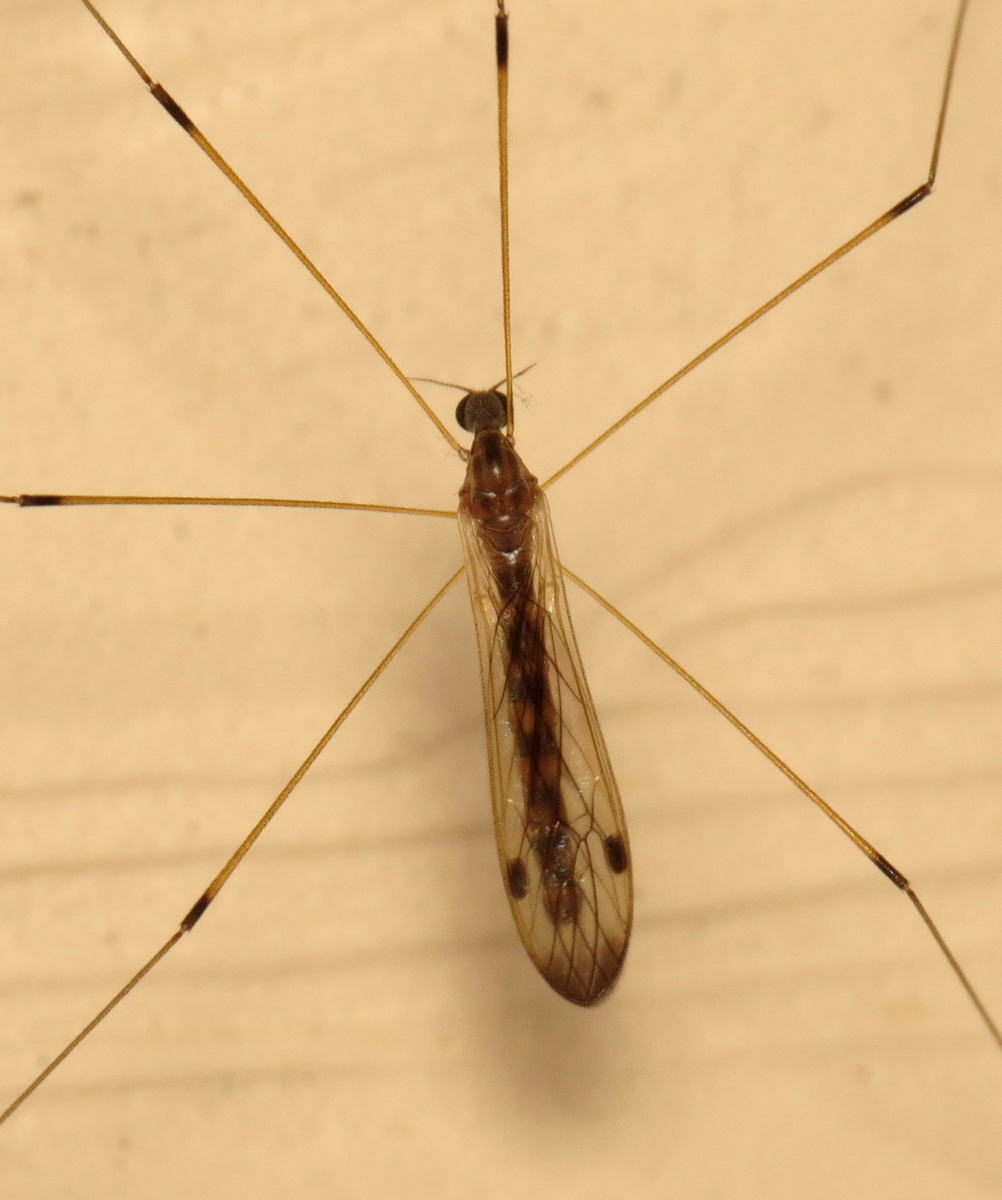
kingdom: Animalia
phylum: Arthropoda
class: Insecta
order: Diptera
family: Limoniidae
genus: Helius
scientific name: Helius flavipes
